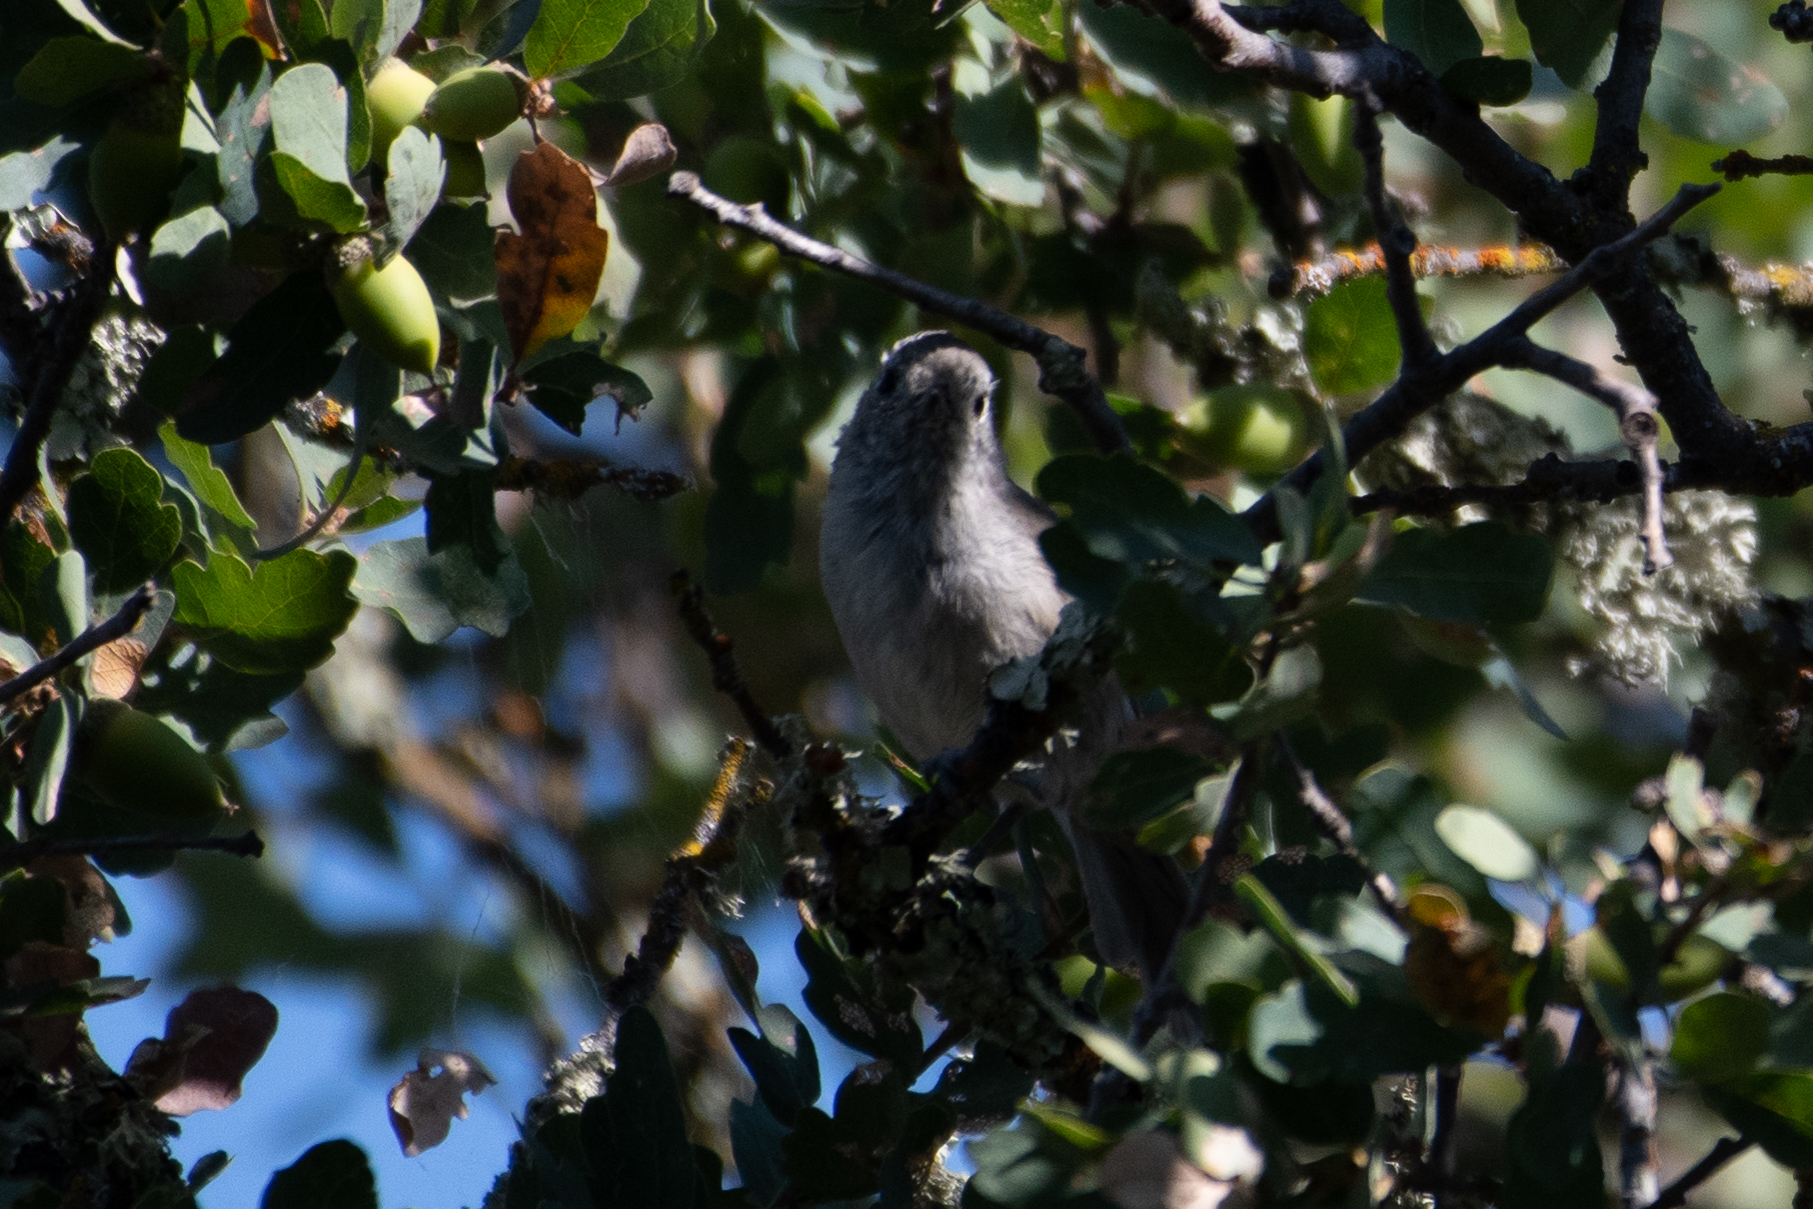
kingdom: Animalia
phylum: Chordata
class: Aves
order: Passeriformes
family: Paridae
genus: Baeolophus
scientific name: Baeolophus inornatus
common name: Oak titmouse
